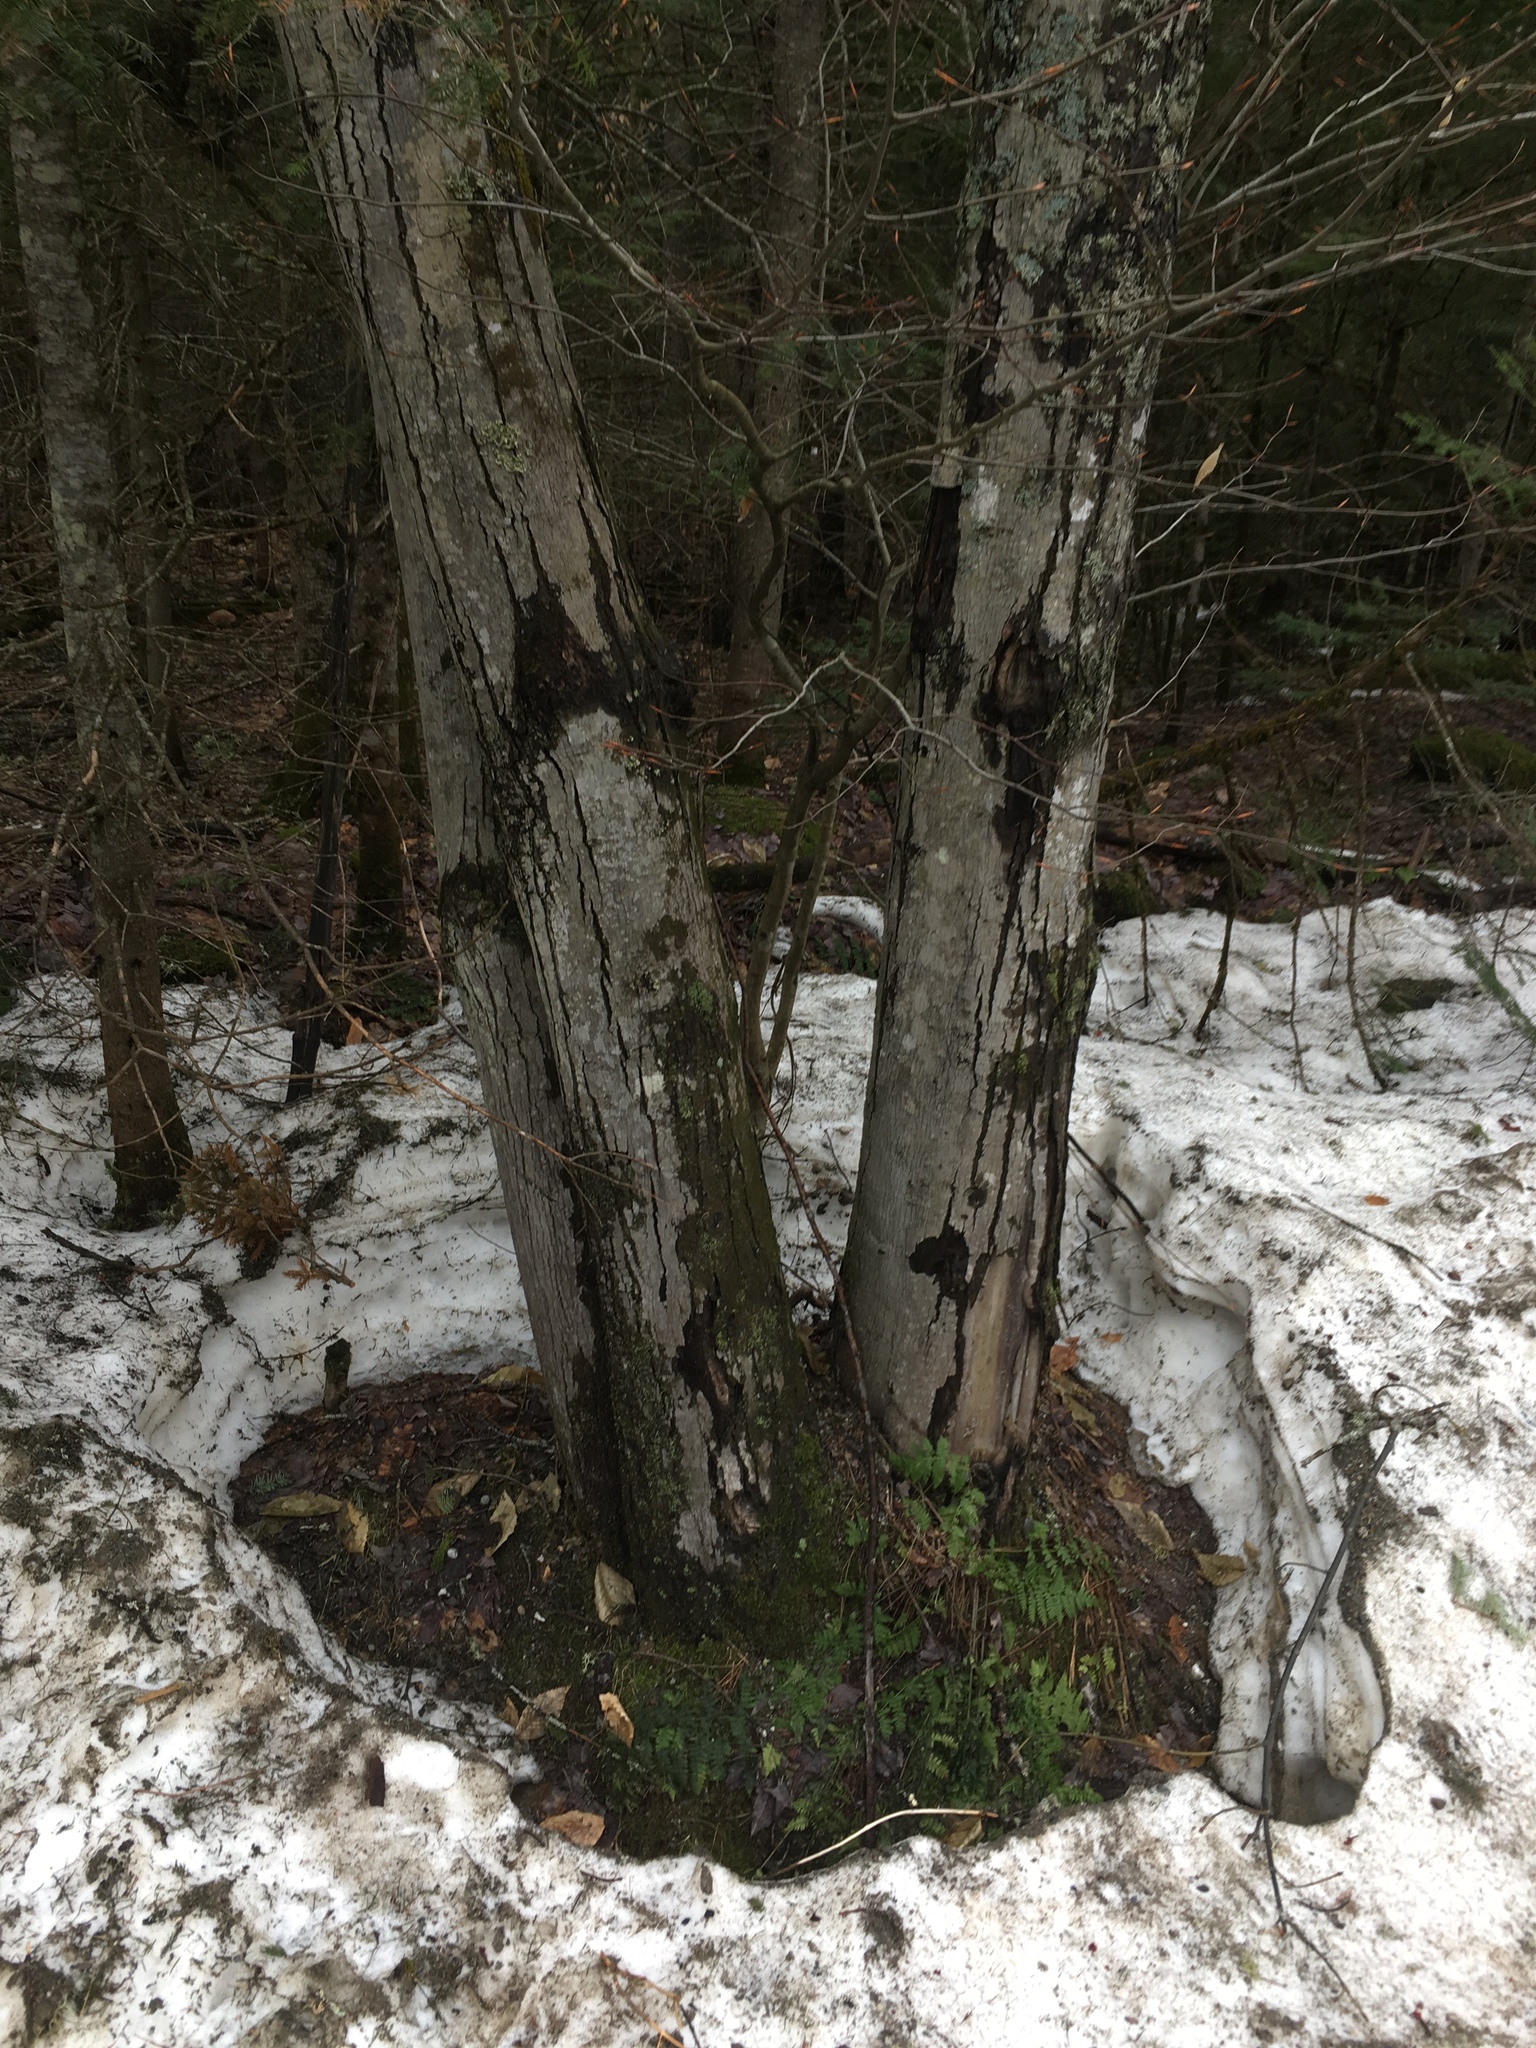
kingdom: Plantae
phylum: Tracheophyta
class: Magnoliopsida
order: Sapindales
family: Sapindaceae
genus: Acer
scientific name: Acer rubrum
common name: Red maple
